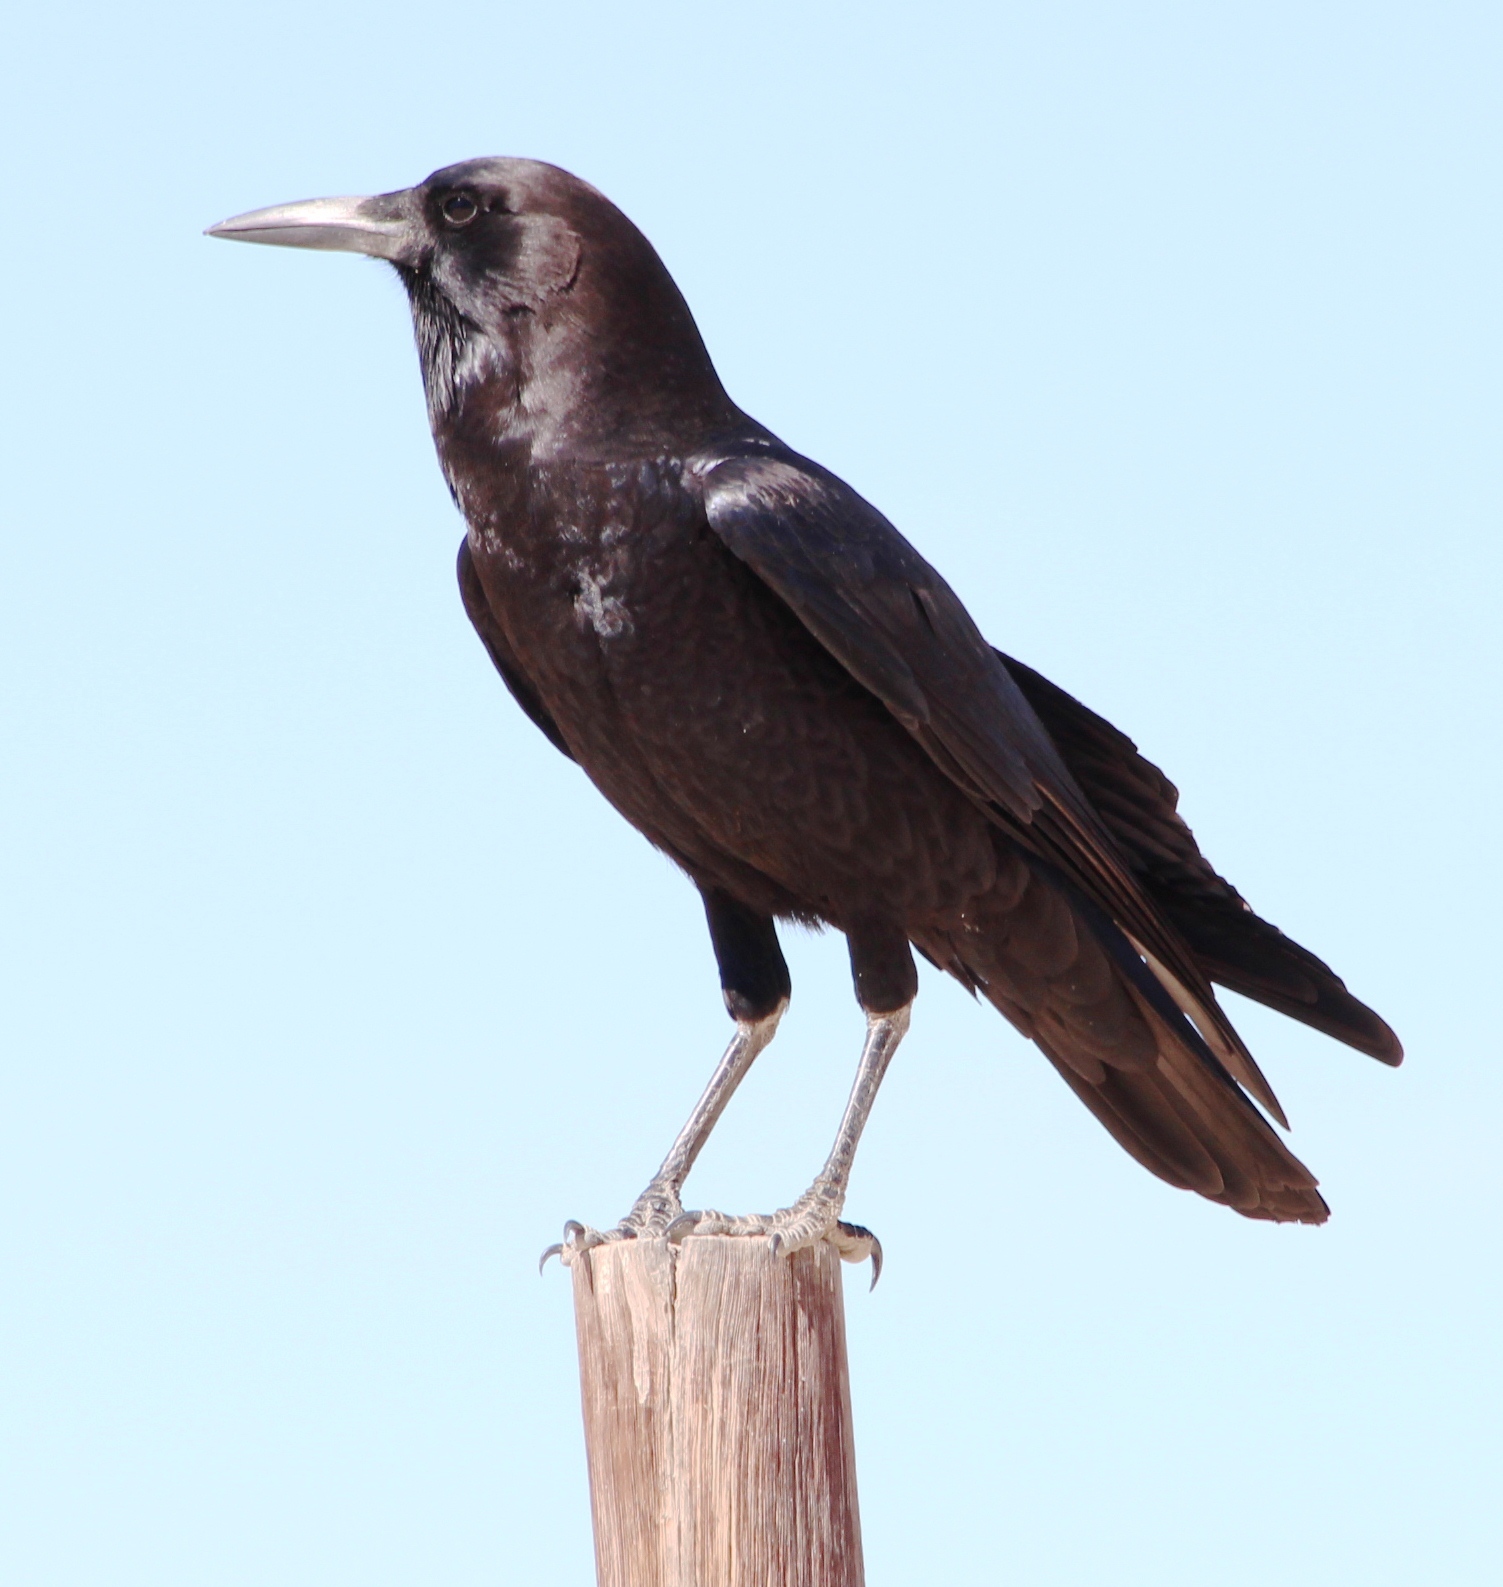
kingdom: Animalia
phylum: Chordata
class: Aves
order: Passeriformes
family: Corvidae
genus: Corvus
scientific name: Corvus capensis
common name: Cape crow
